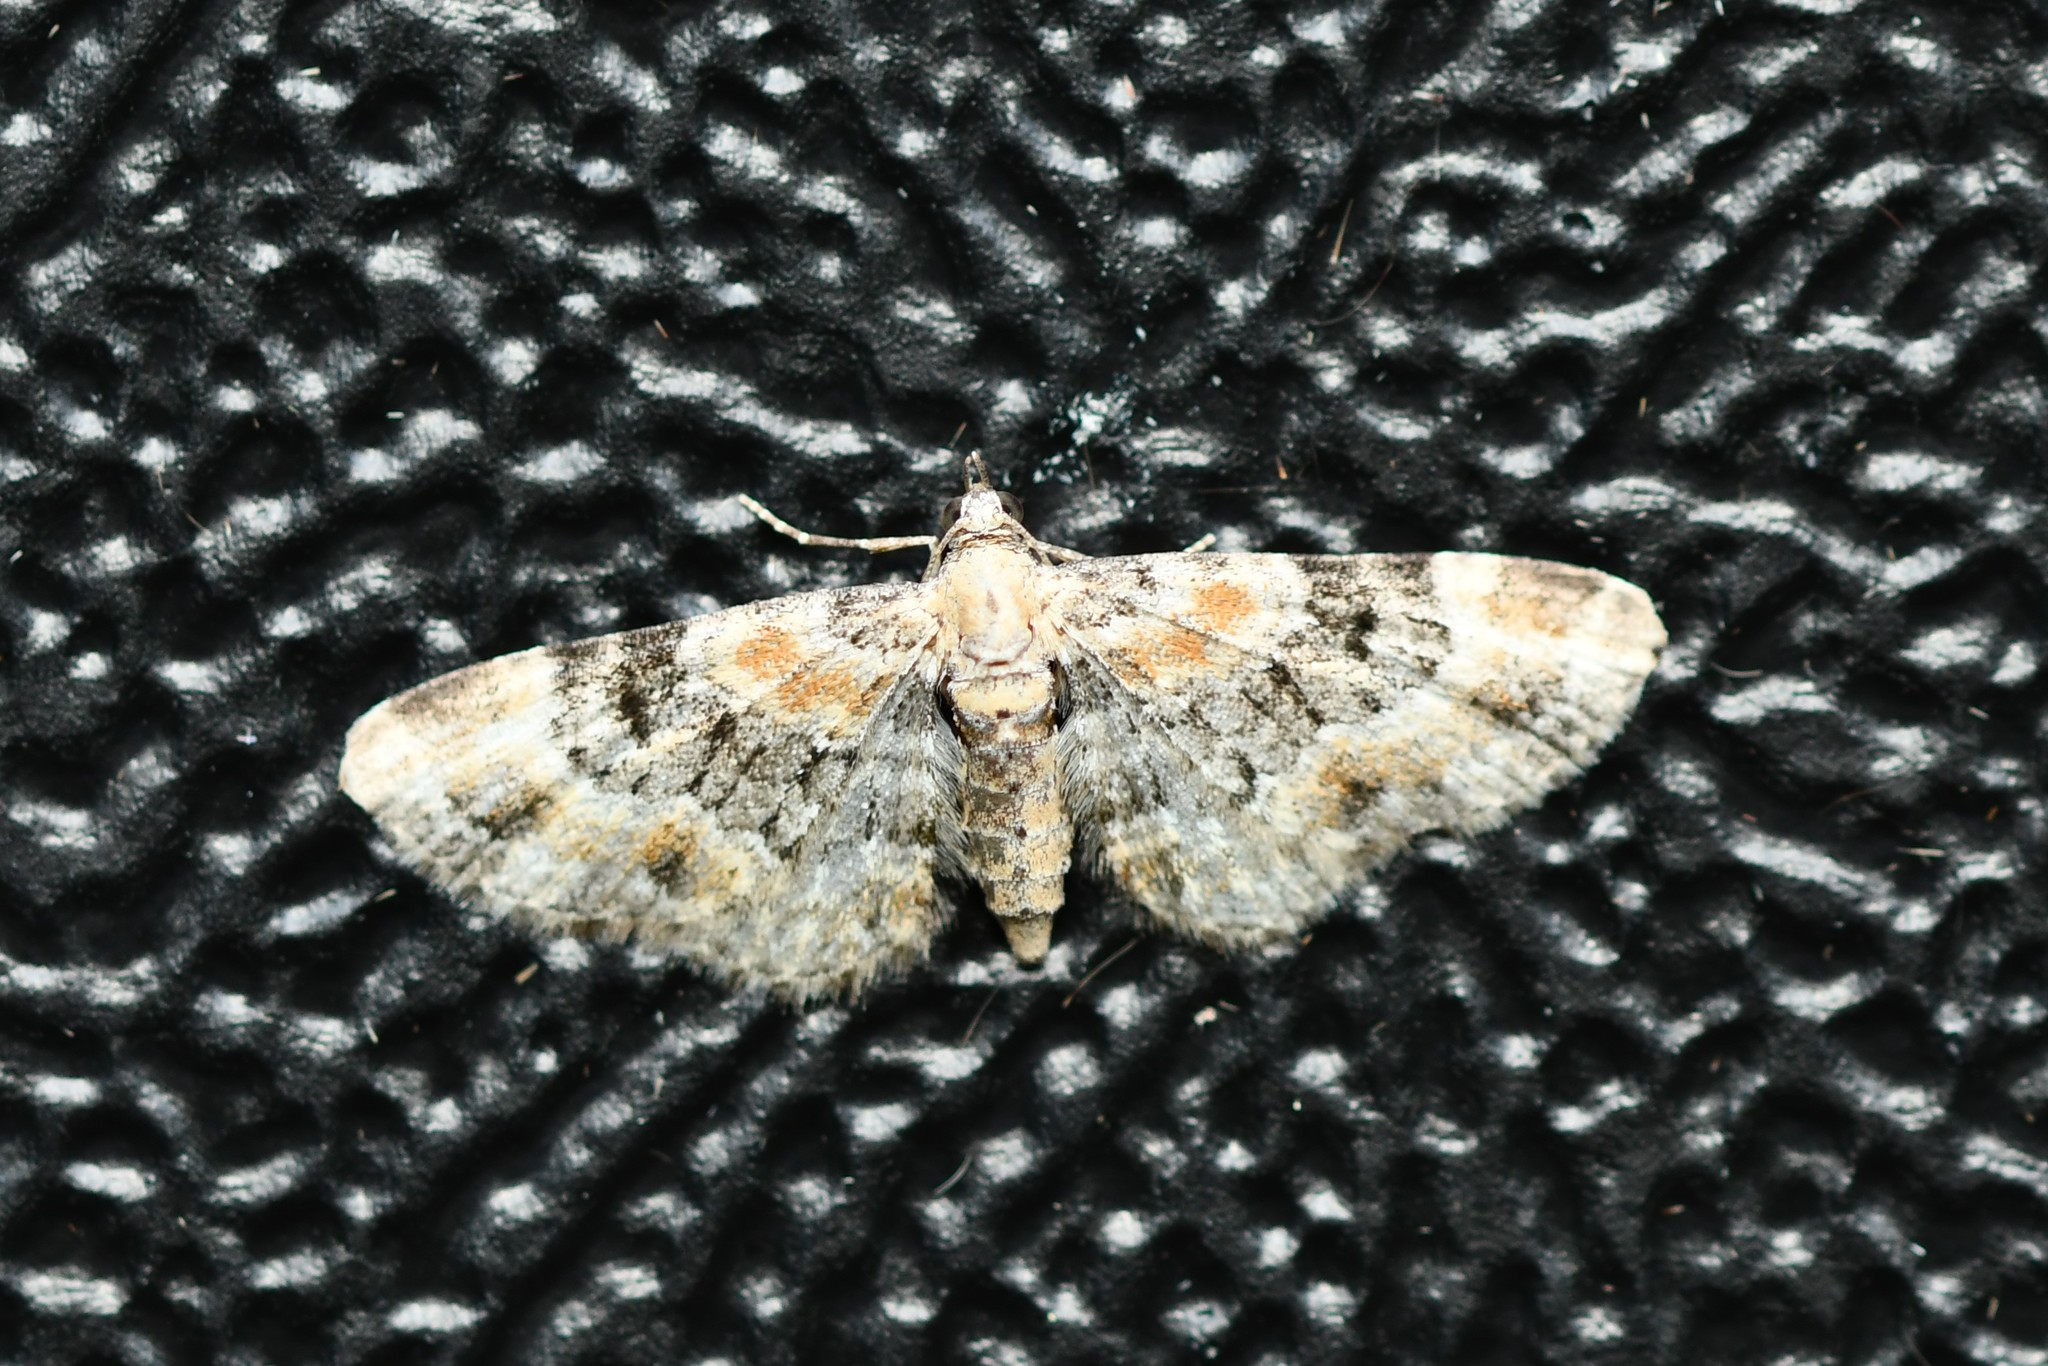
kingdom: Animalia
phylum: Arthropoda
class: Insecta
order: Lepidoptera
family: Geometridae
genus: Eupithecia
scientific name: Eupithecia pulchellata
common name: Foxglove pug
